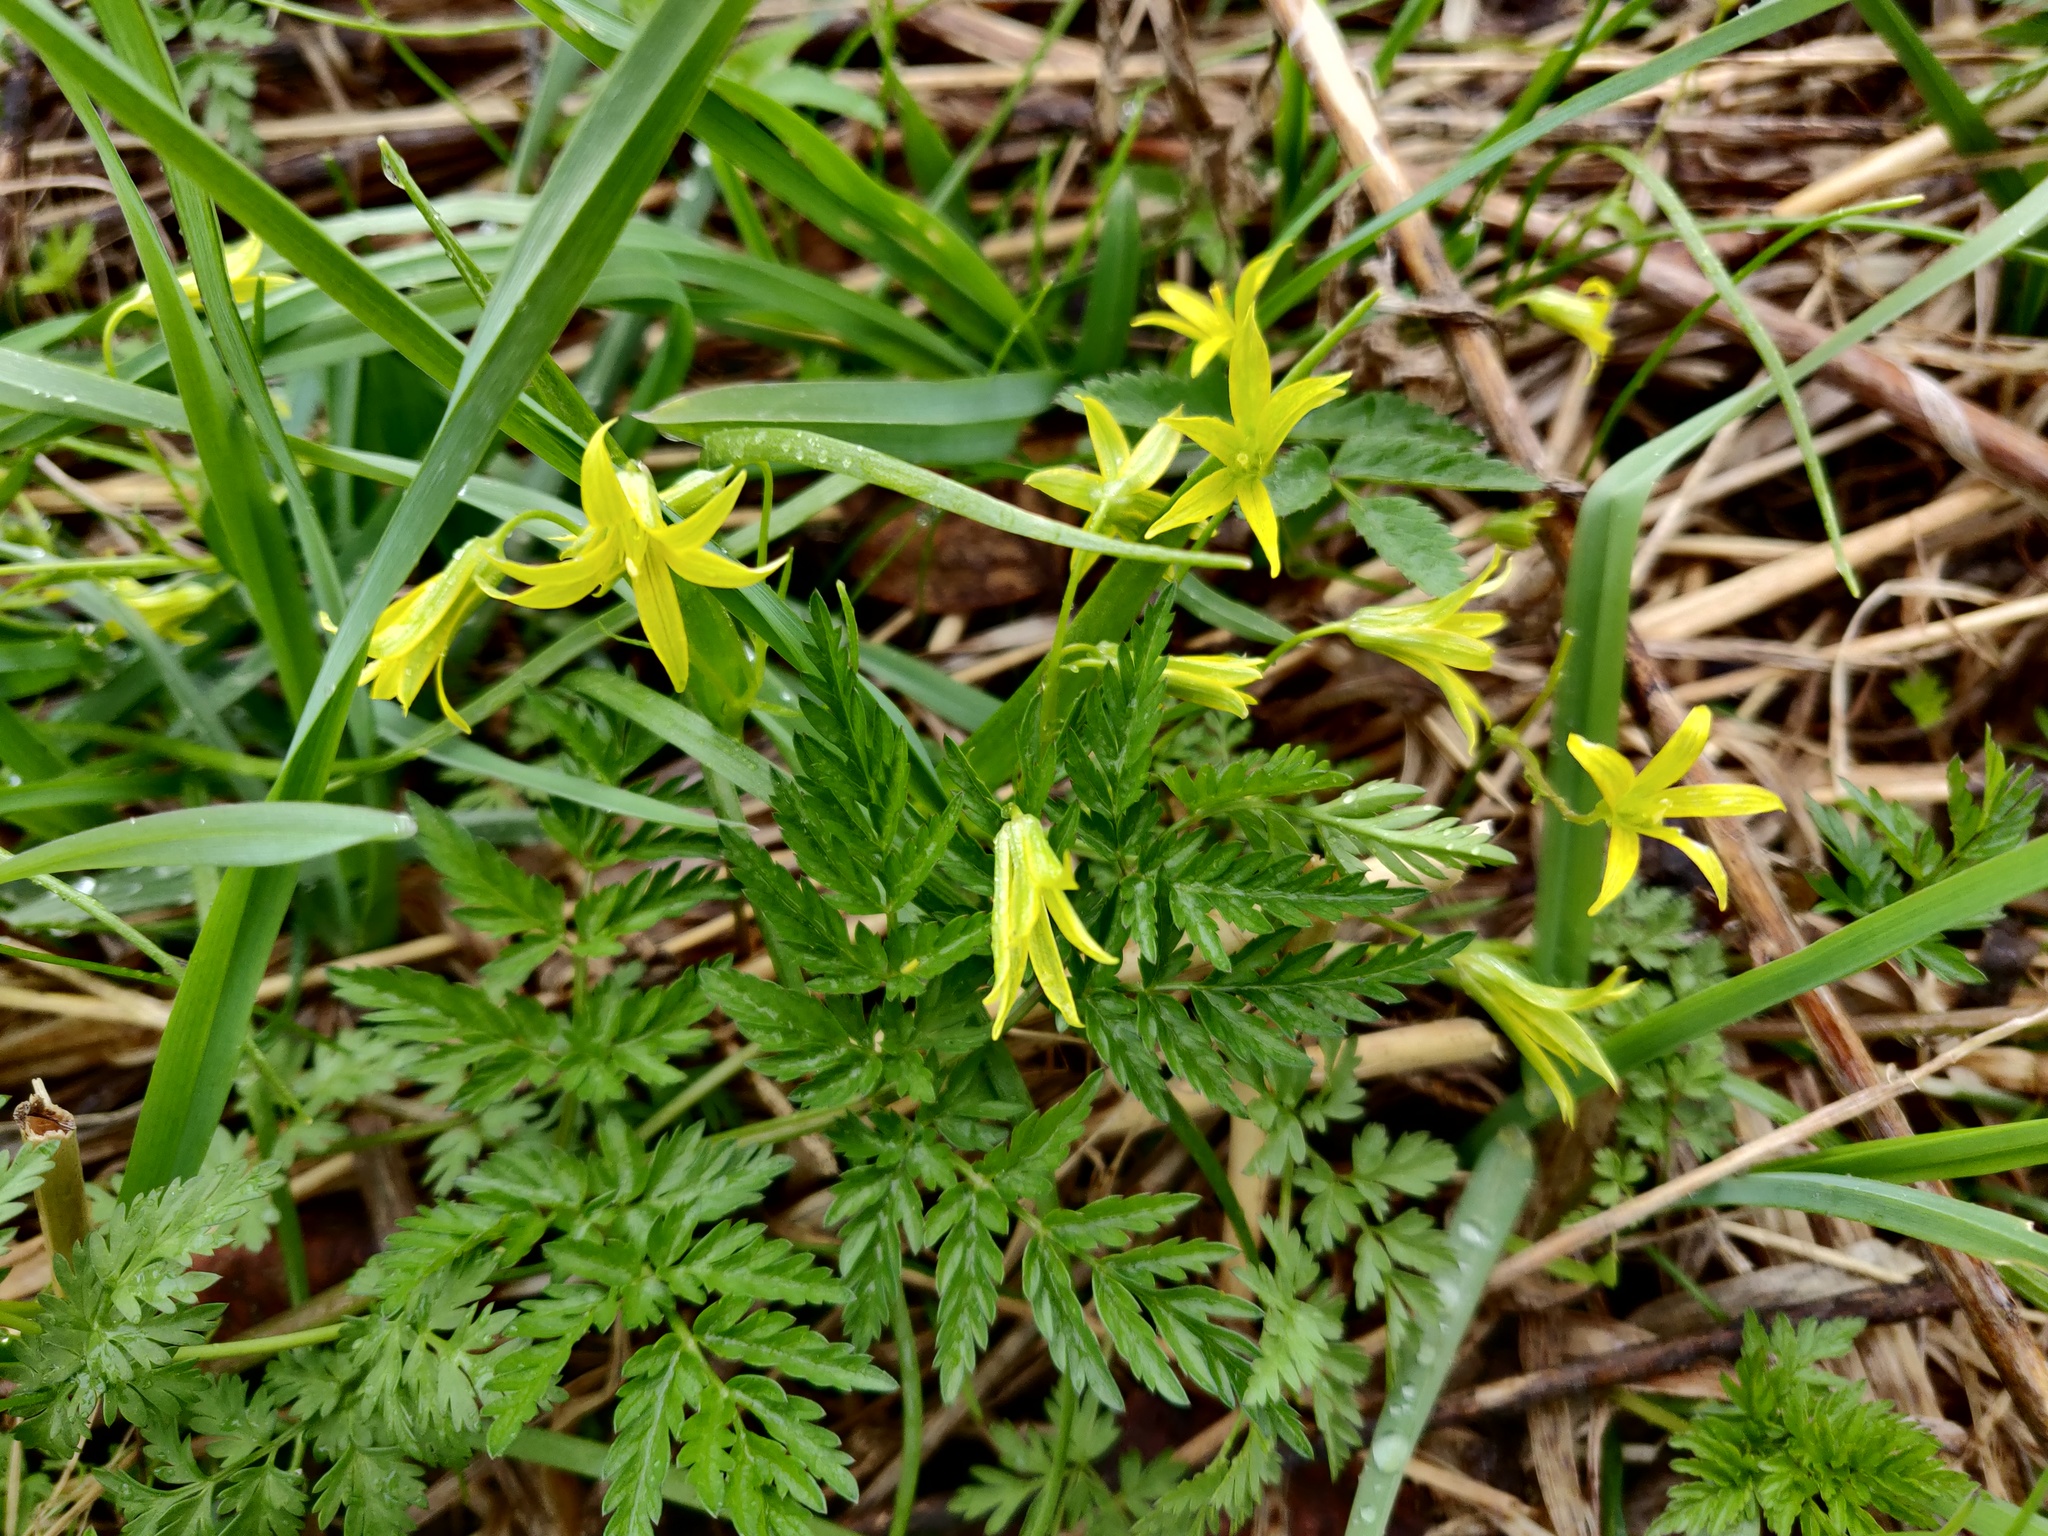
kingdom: Plantae
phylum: Tracheophyta
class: Liliopsida
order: Liliales
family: Liliaceae
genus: Gagea
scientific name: Gagea minima
